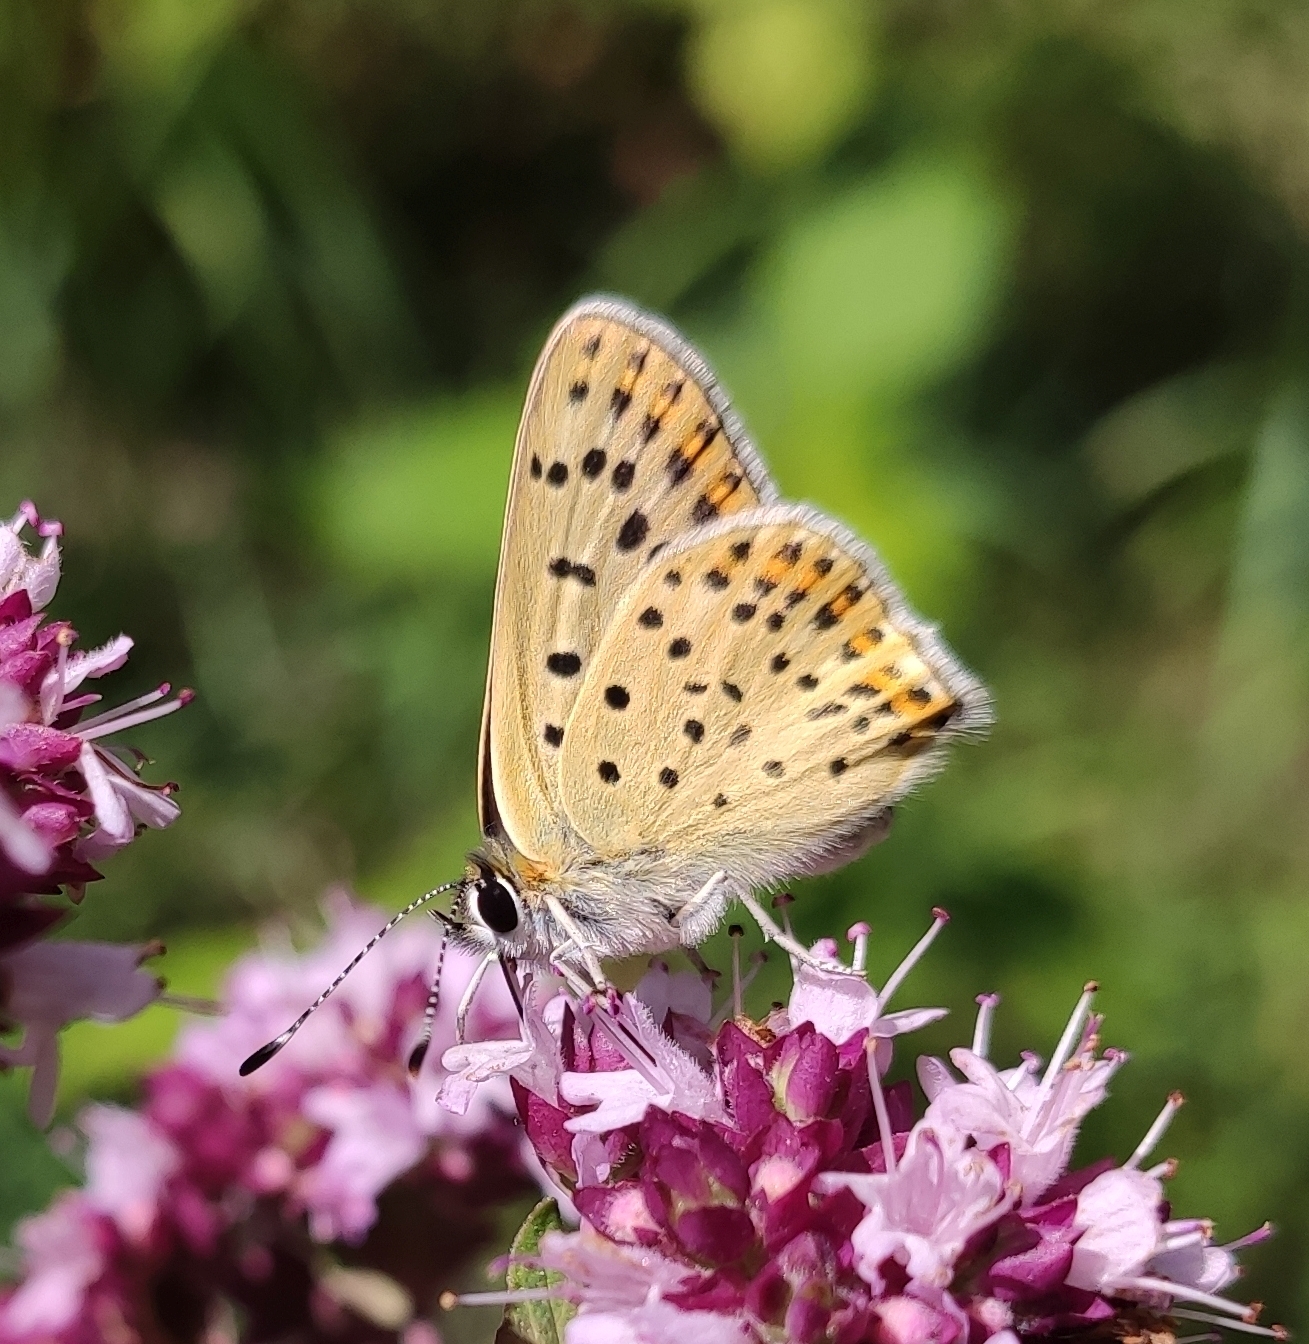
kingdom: Animalia
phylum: Arthropoda
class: Insecta
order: Lepidoptera
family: Lycaenidae
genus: Loweia
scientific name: Loweia tityrus
